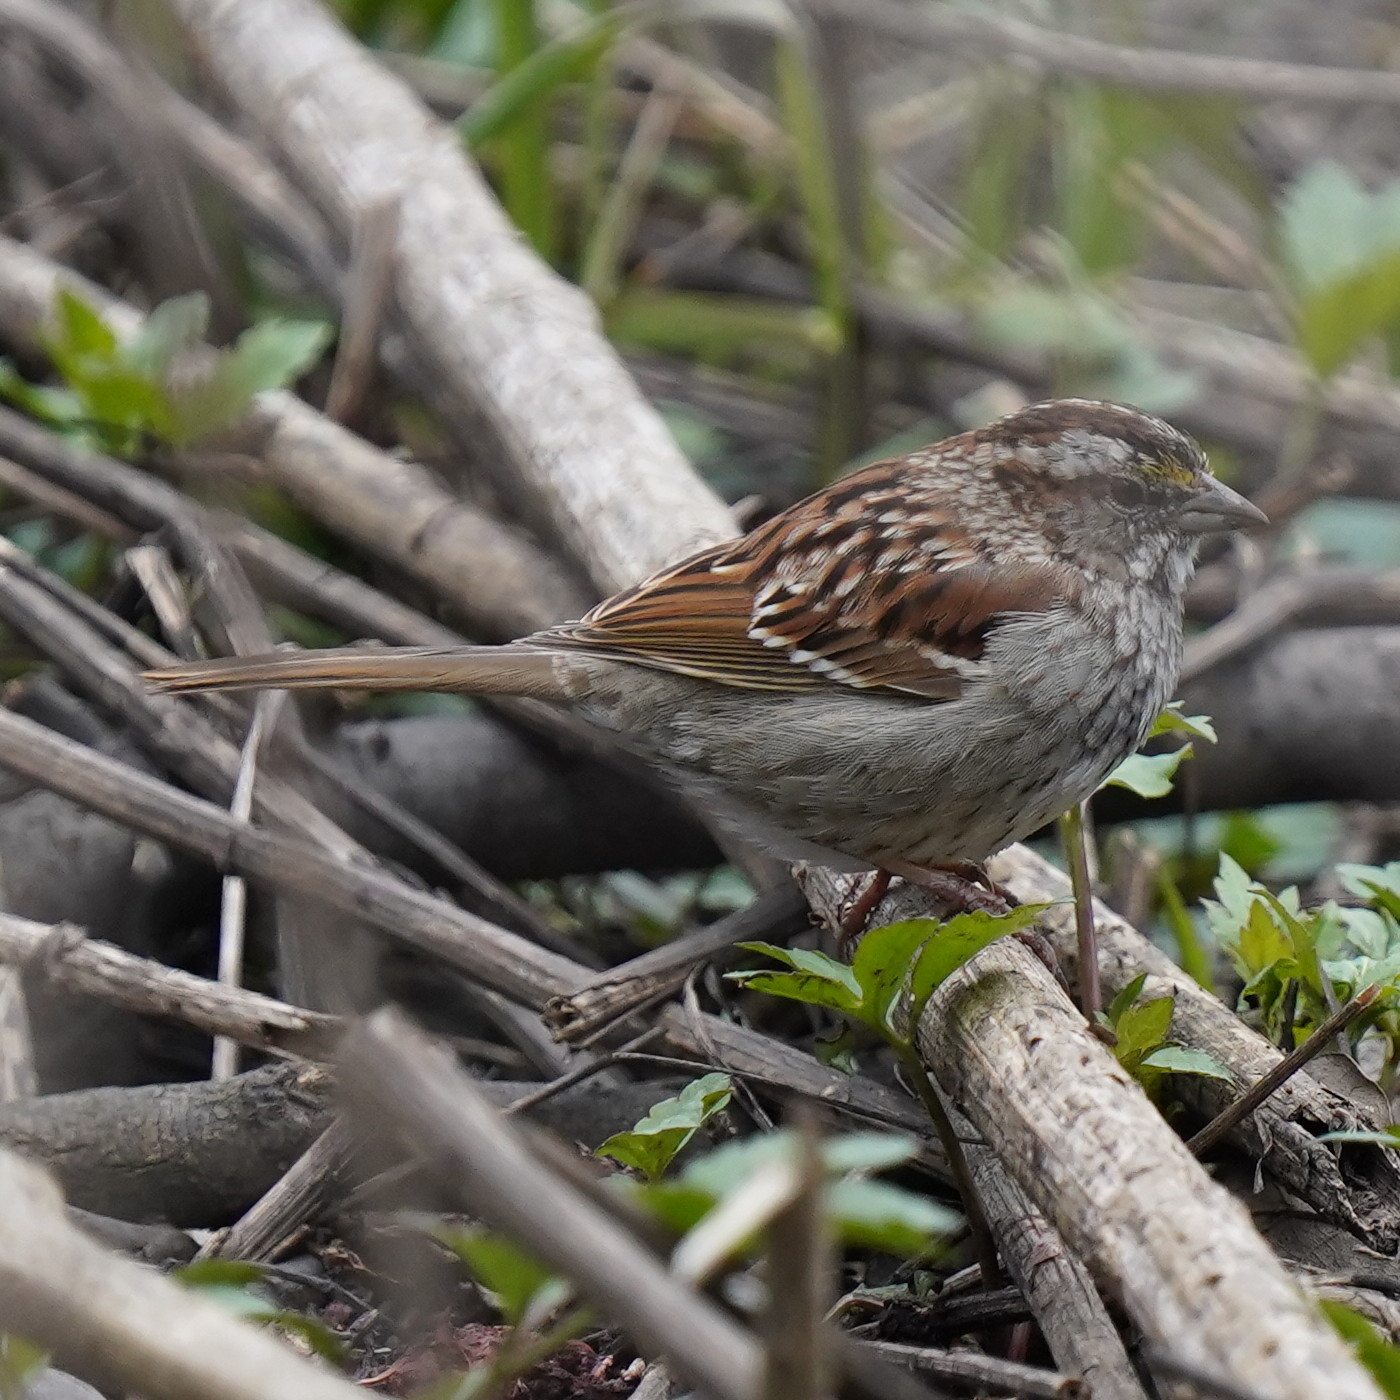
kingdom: Animalia
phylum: Chordata
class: Aves
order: Passeriformes
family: Passerellidae
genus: Zonotrichia
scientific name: Zonotrichia albicollis
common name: White-throated sparrow
